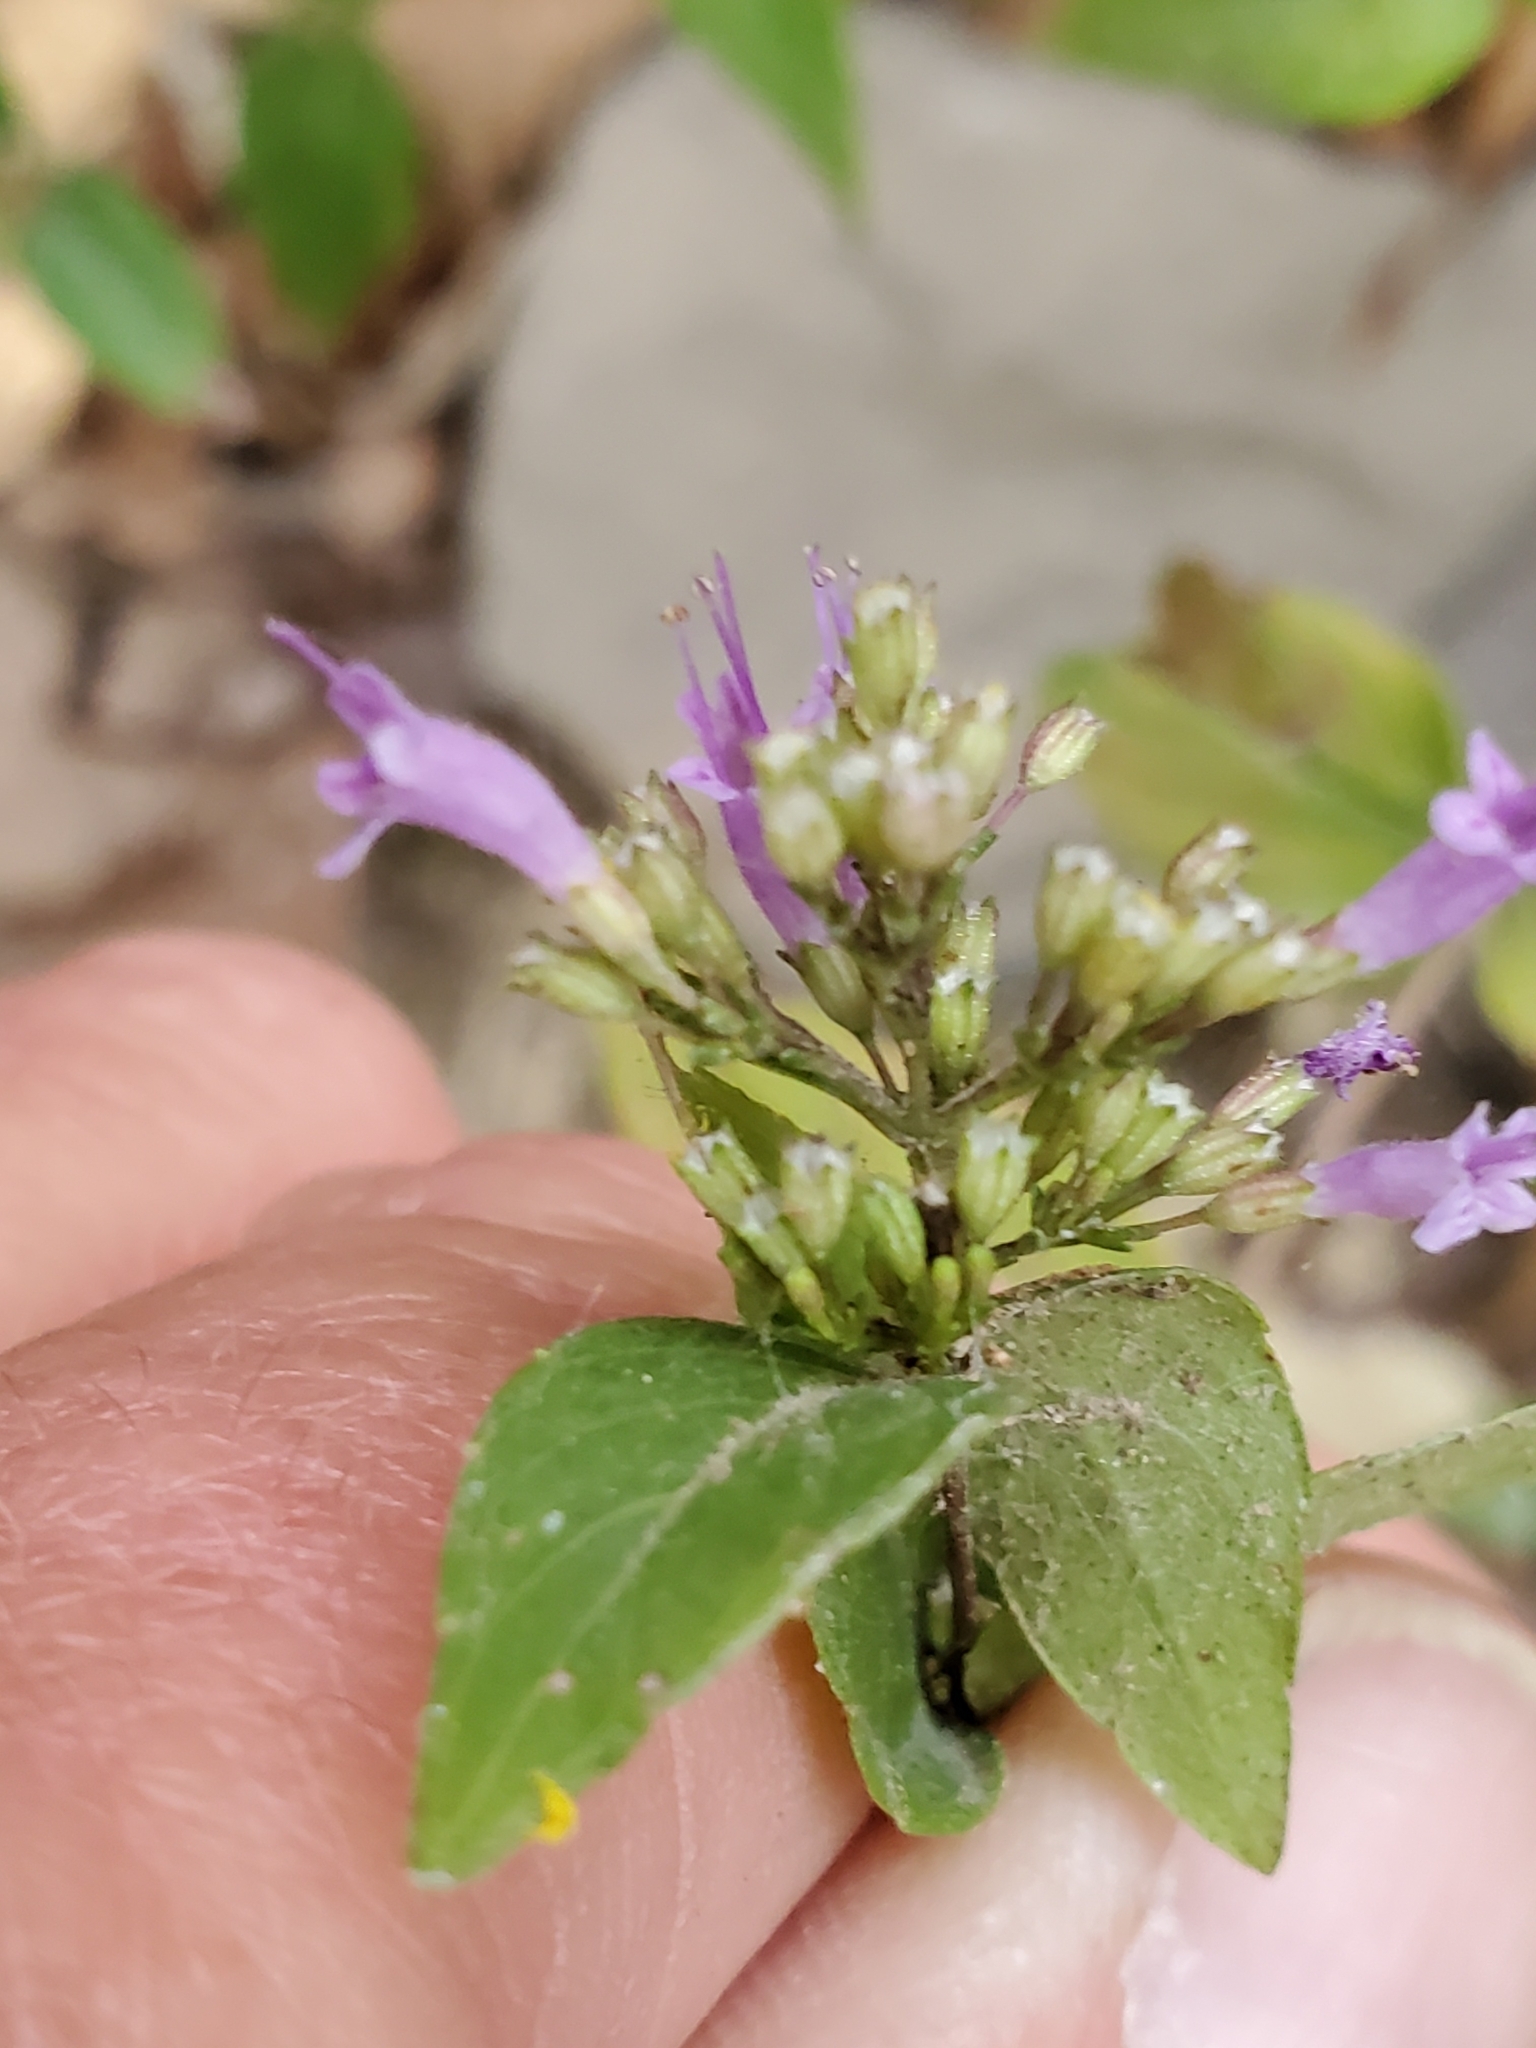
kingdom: Plantae
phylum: Tracheophyta
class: Magnoliopsida
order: Lamiales
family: Lamiaceae
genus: Cunila
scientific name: Cunila origanoides
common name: American dittany
